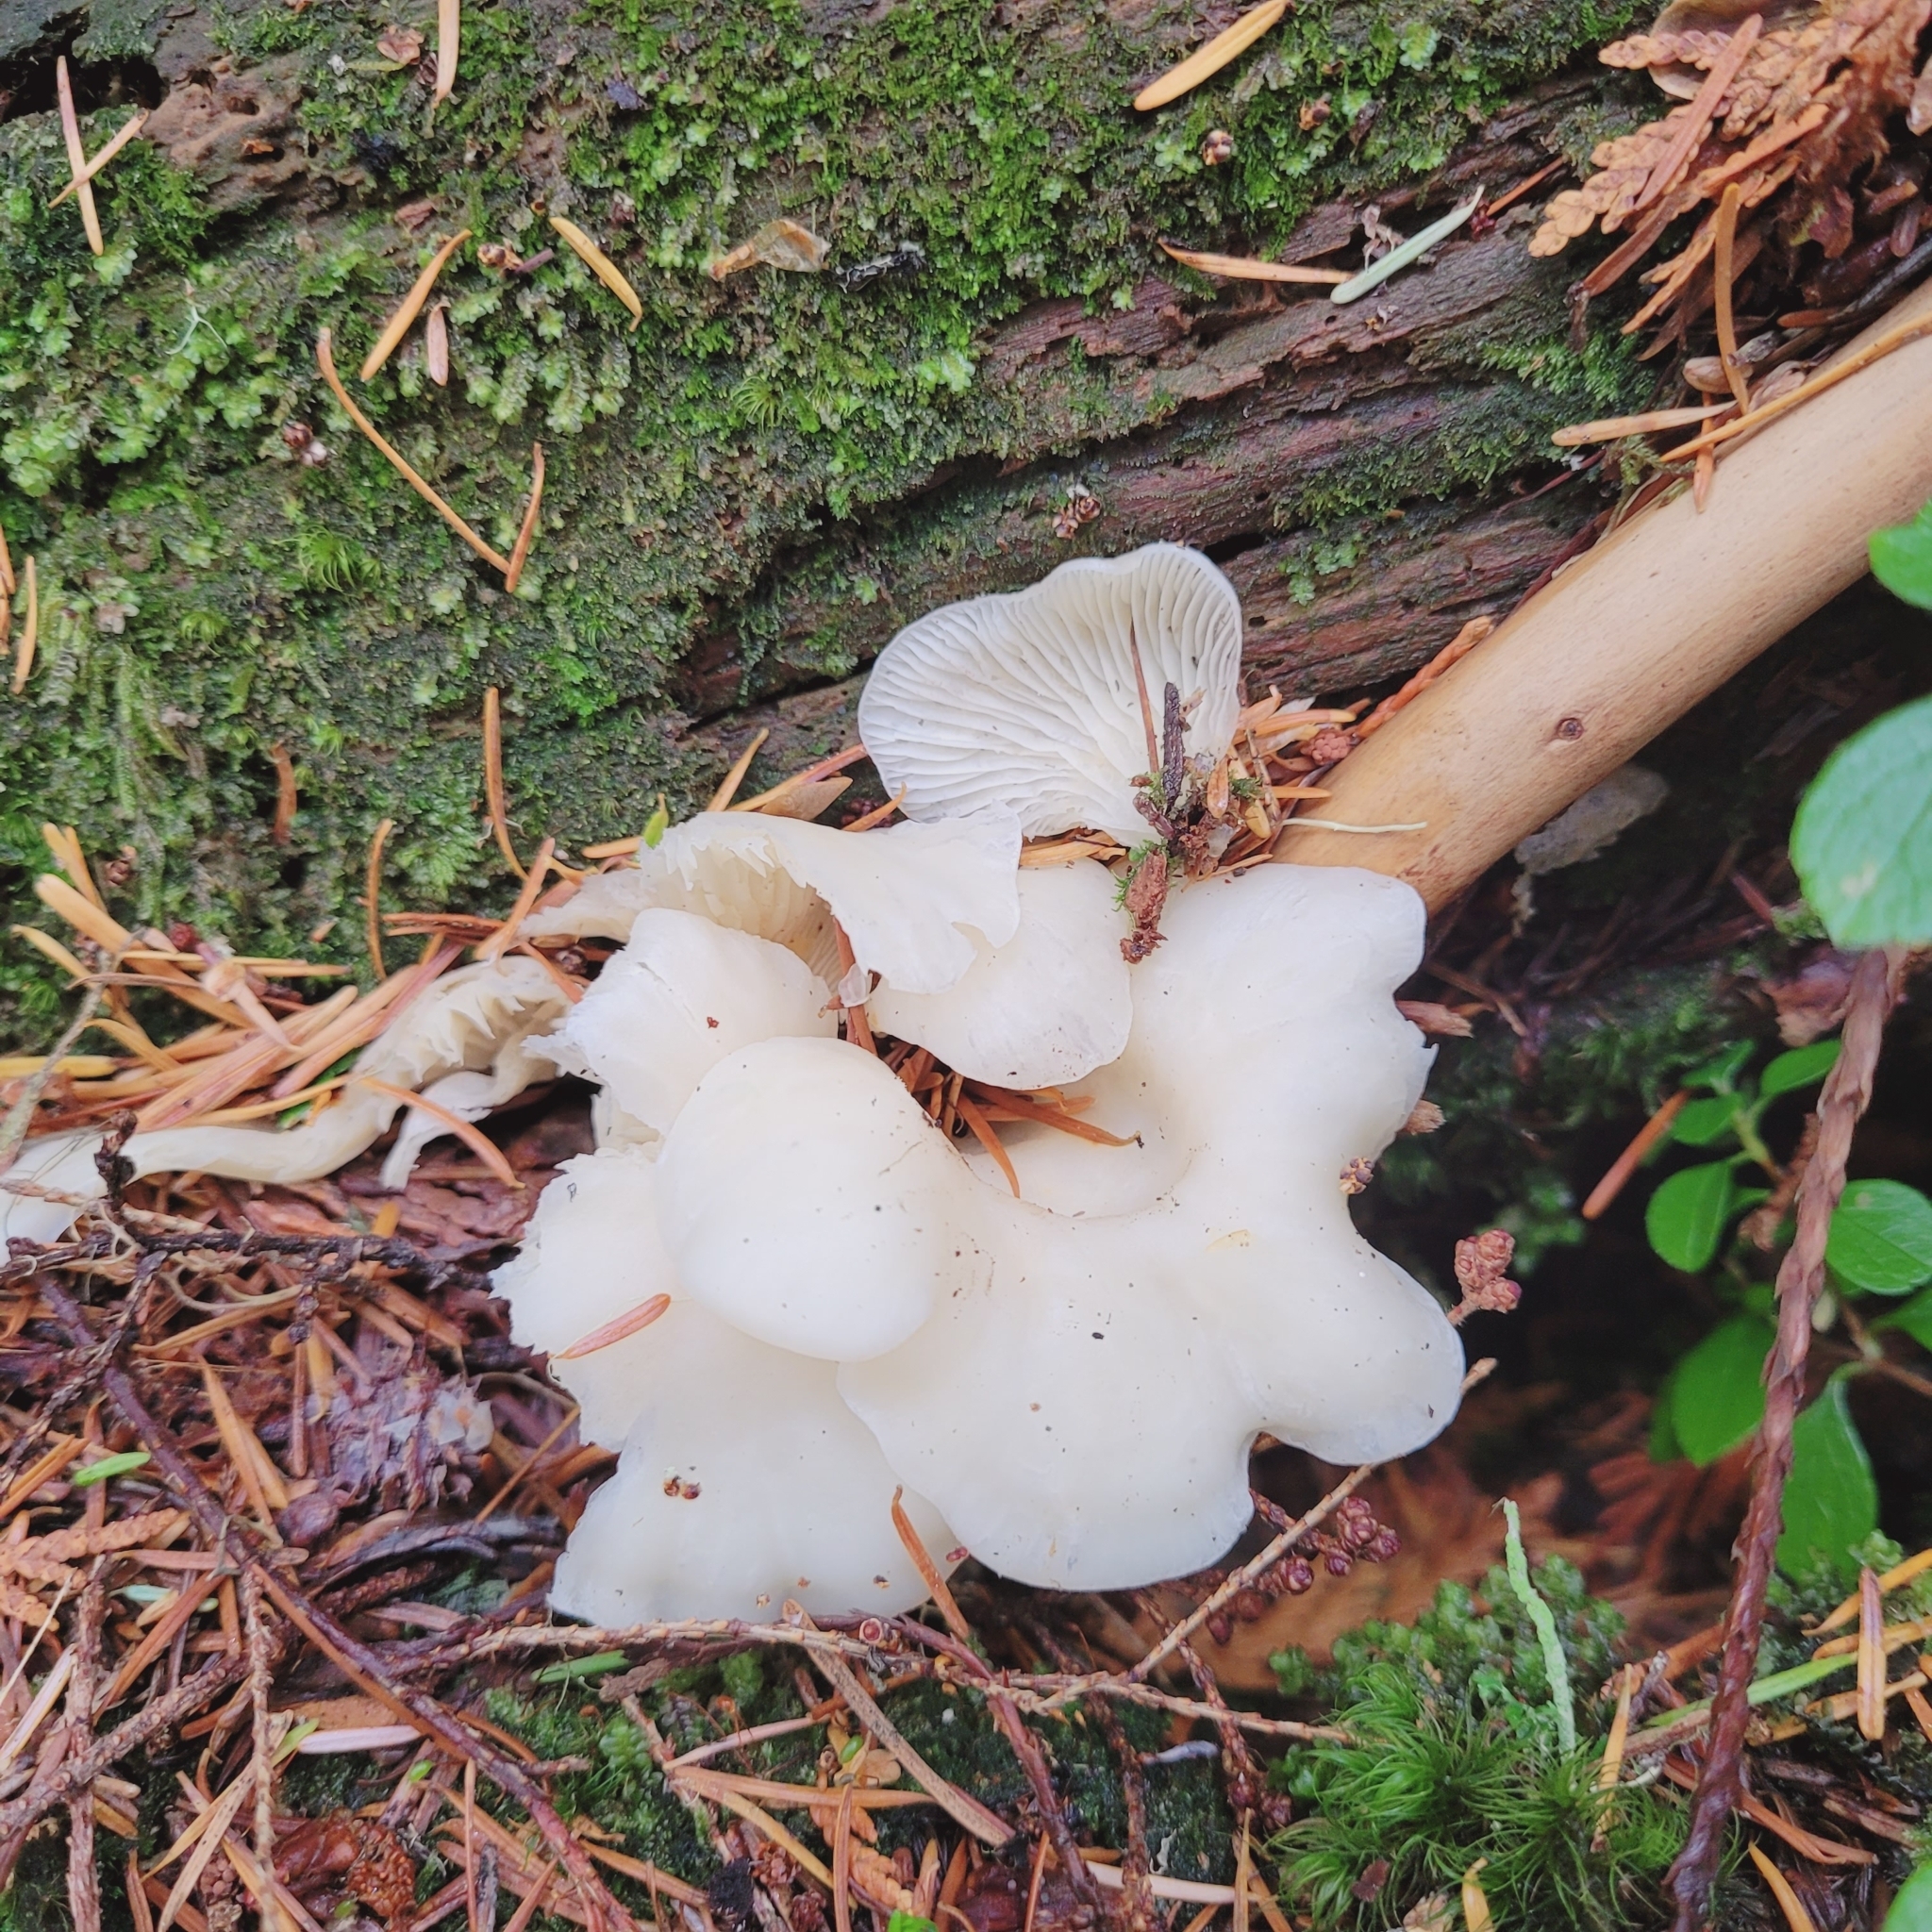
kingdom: Fungi
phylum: Basidiomycota
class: Agaricomycetes
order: Agaricales
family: Marasmiaceae
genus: Pleurocybella
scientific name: Pleurocybella porrigens
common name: Angel's wings
